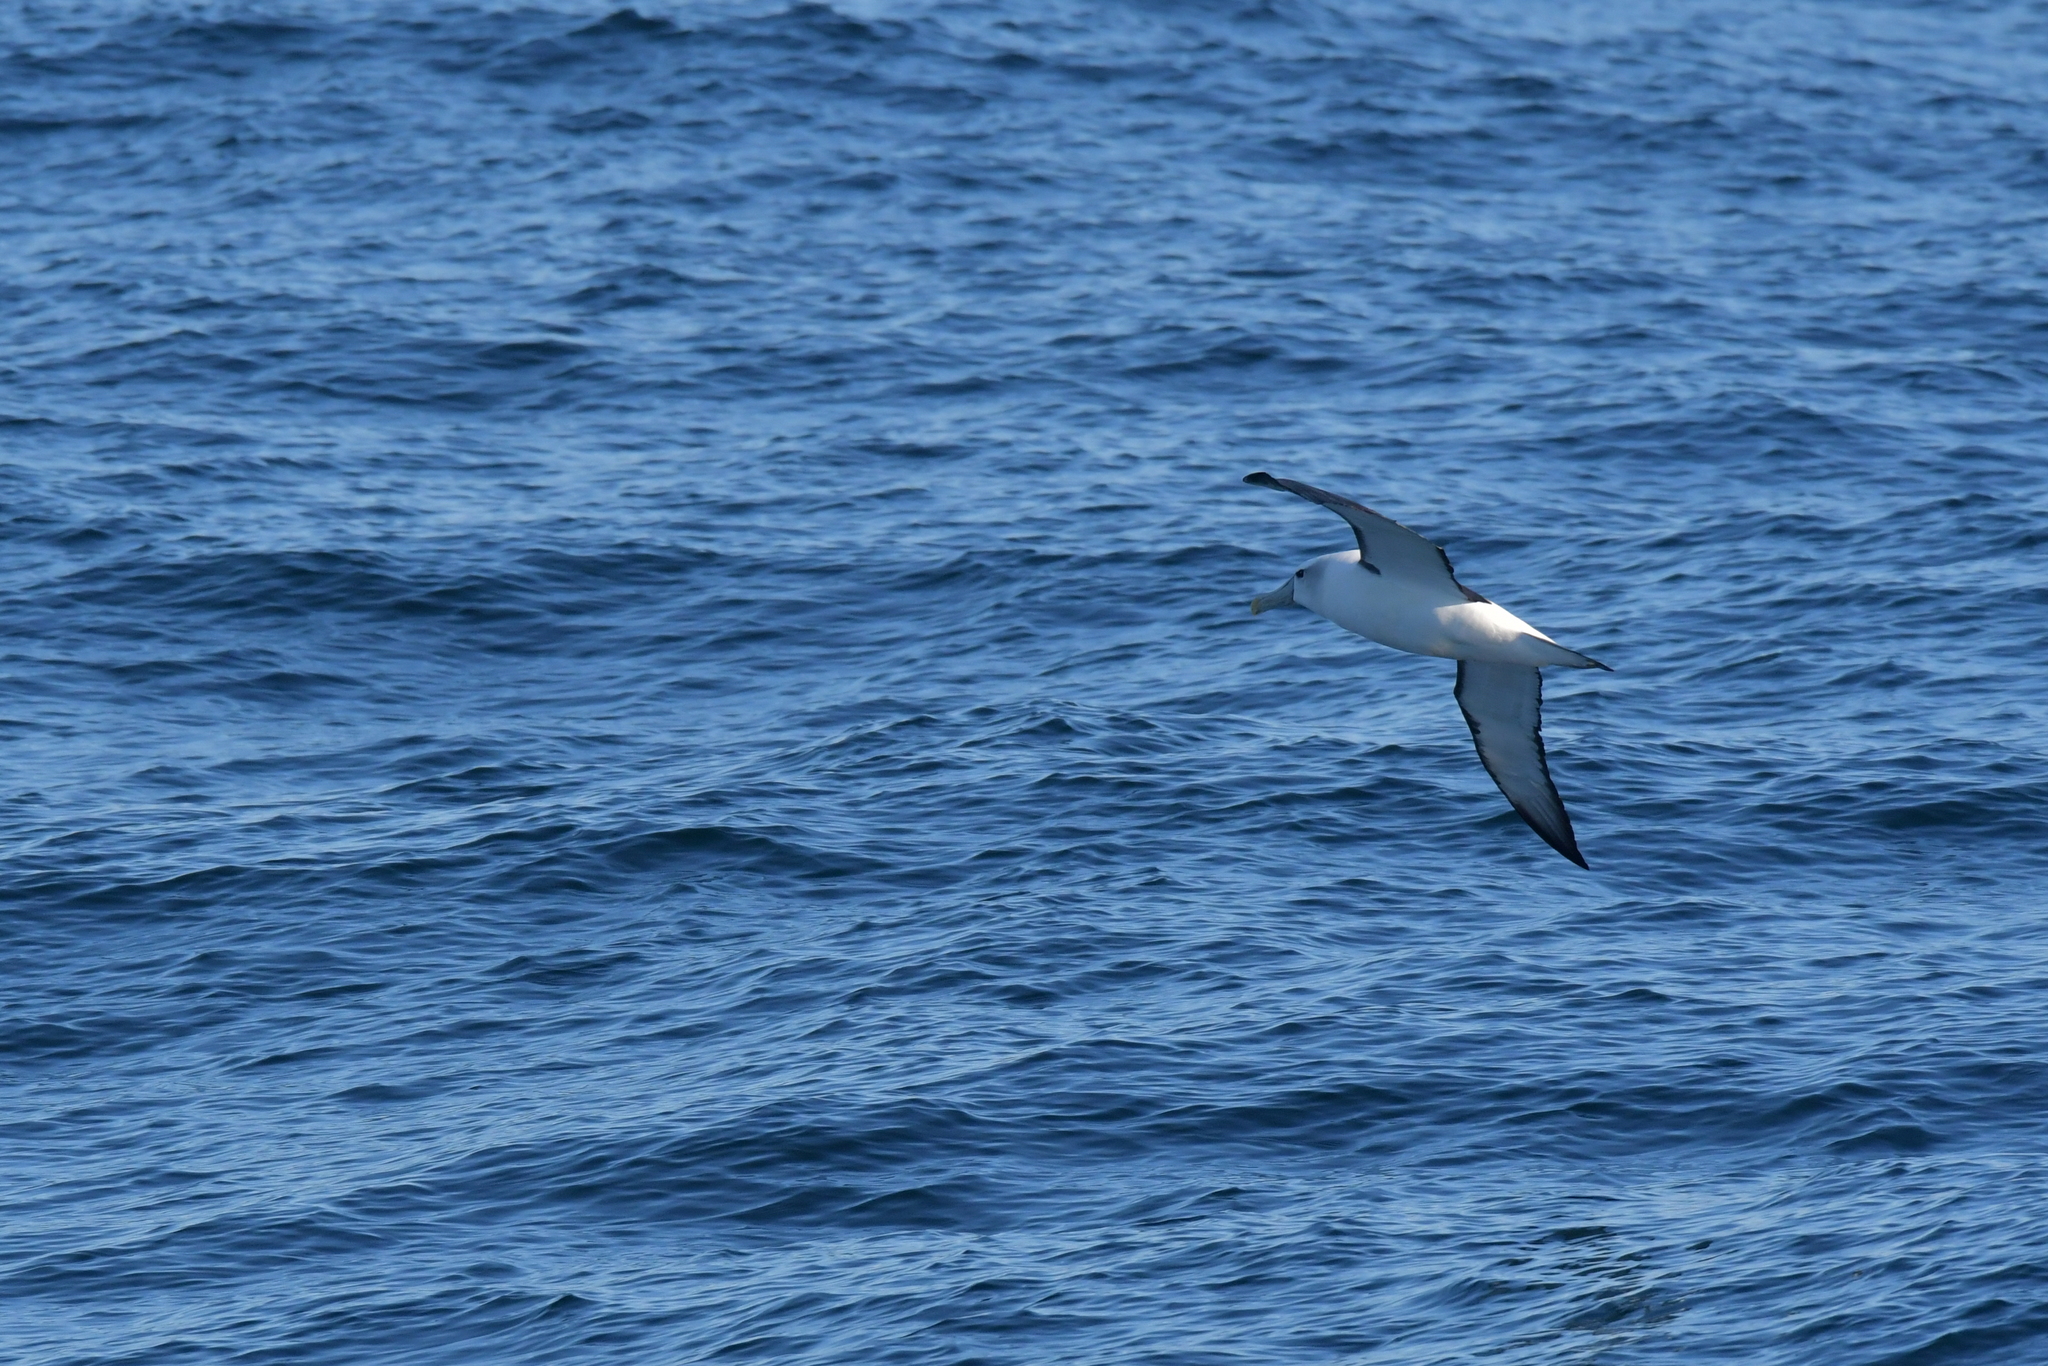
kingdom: Animalia
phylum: Chordata
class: Aves
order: Procellariiformes
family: Diomedeidae
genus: Thalassarche
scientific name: Thalassarche cauta
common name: Shy albatross
